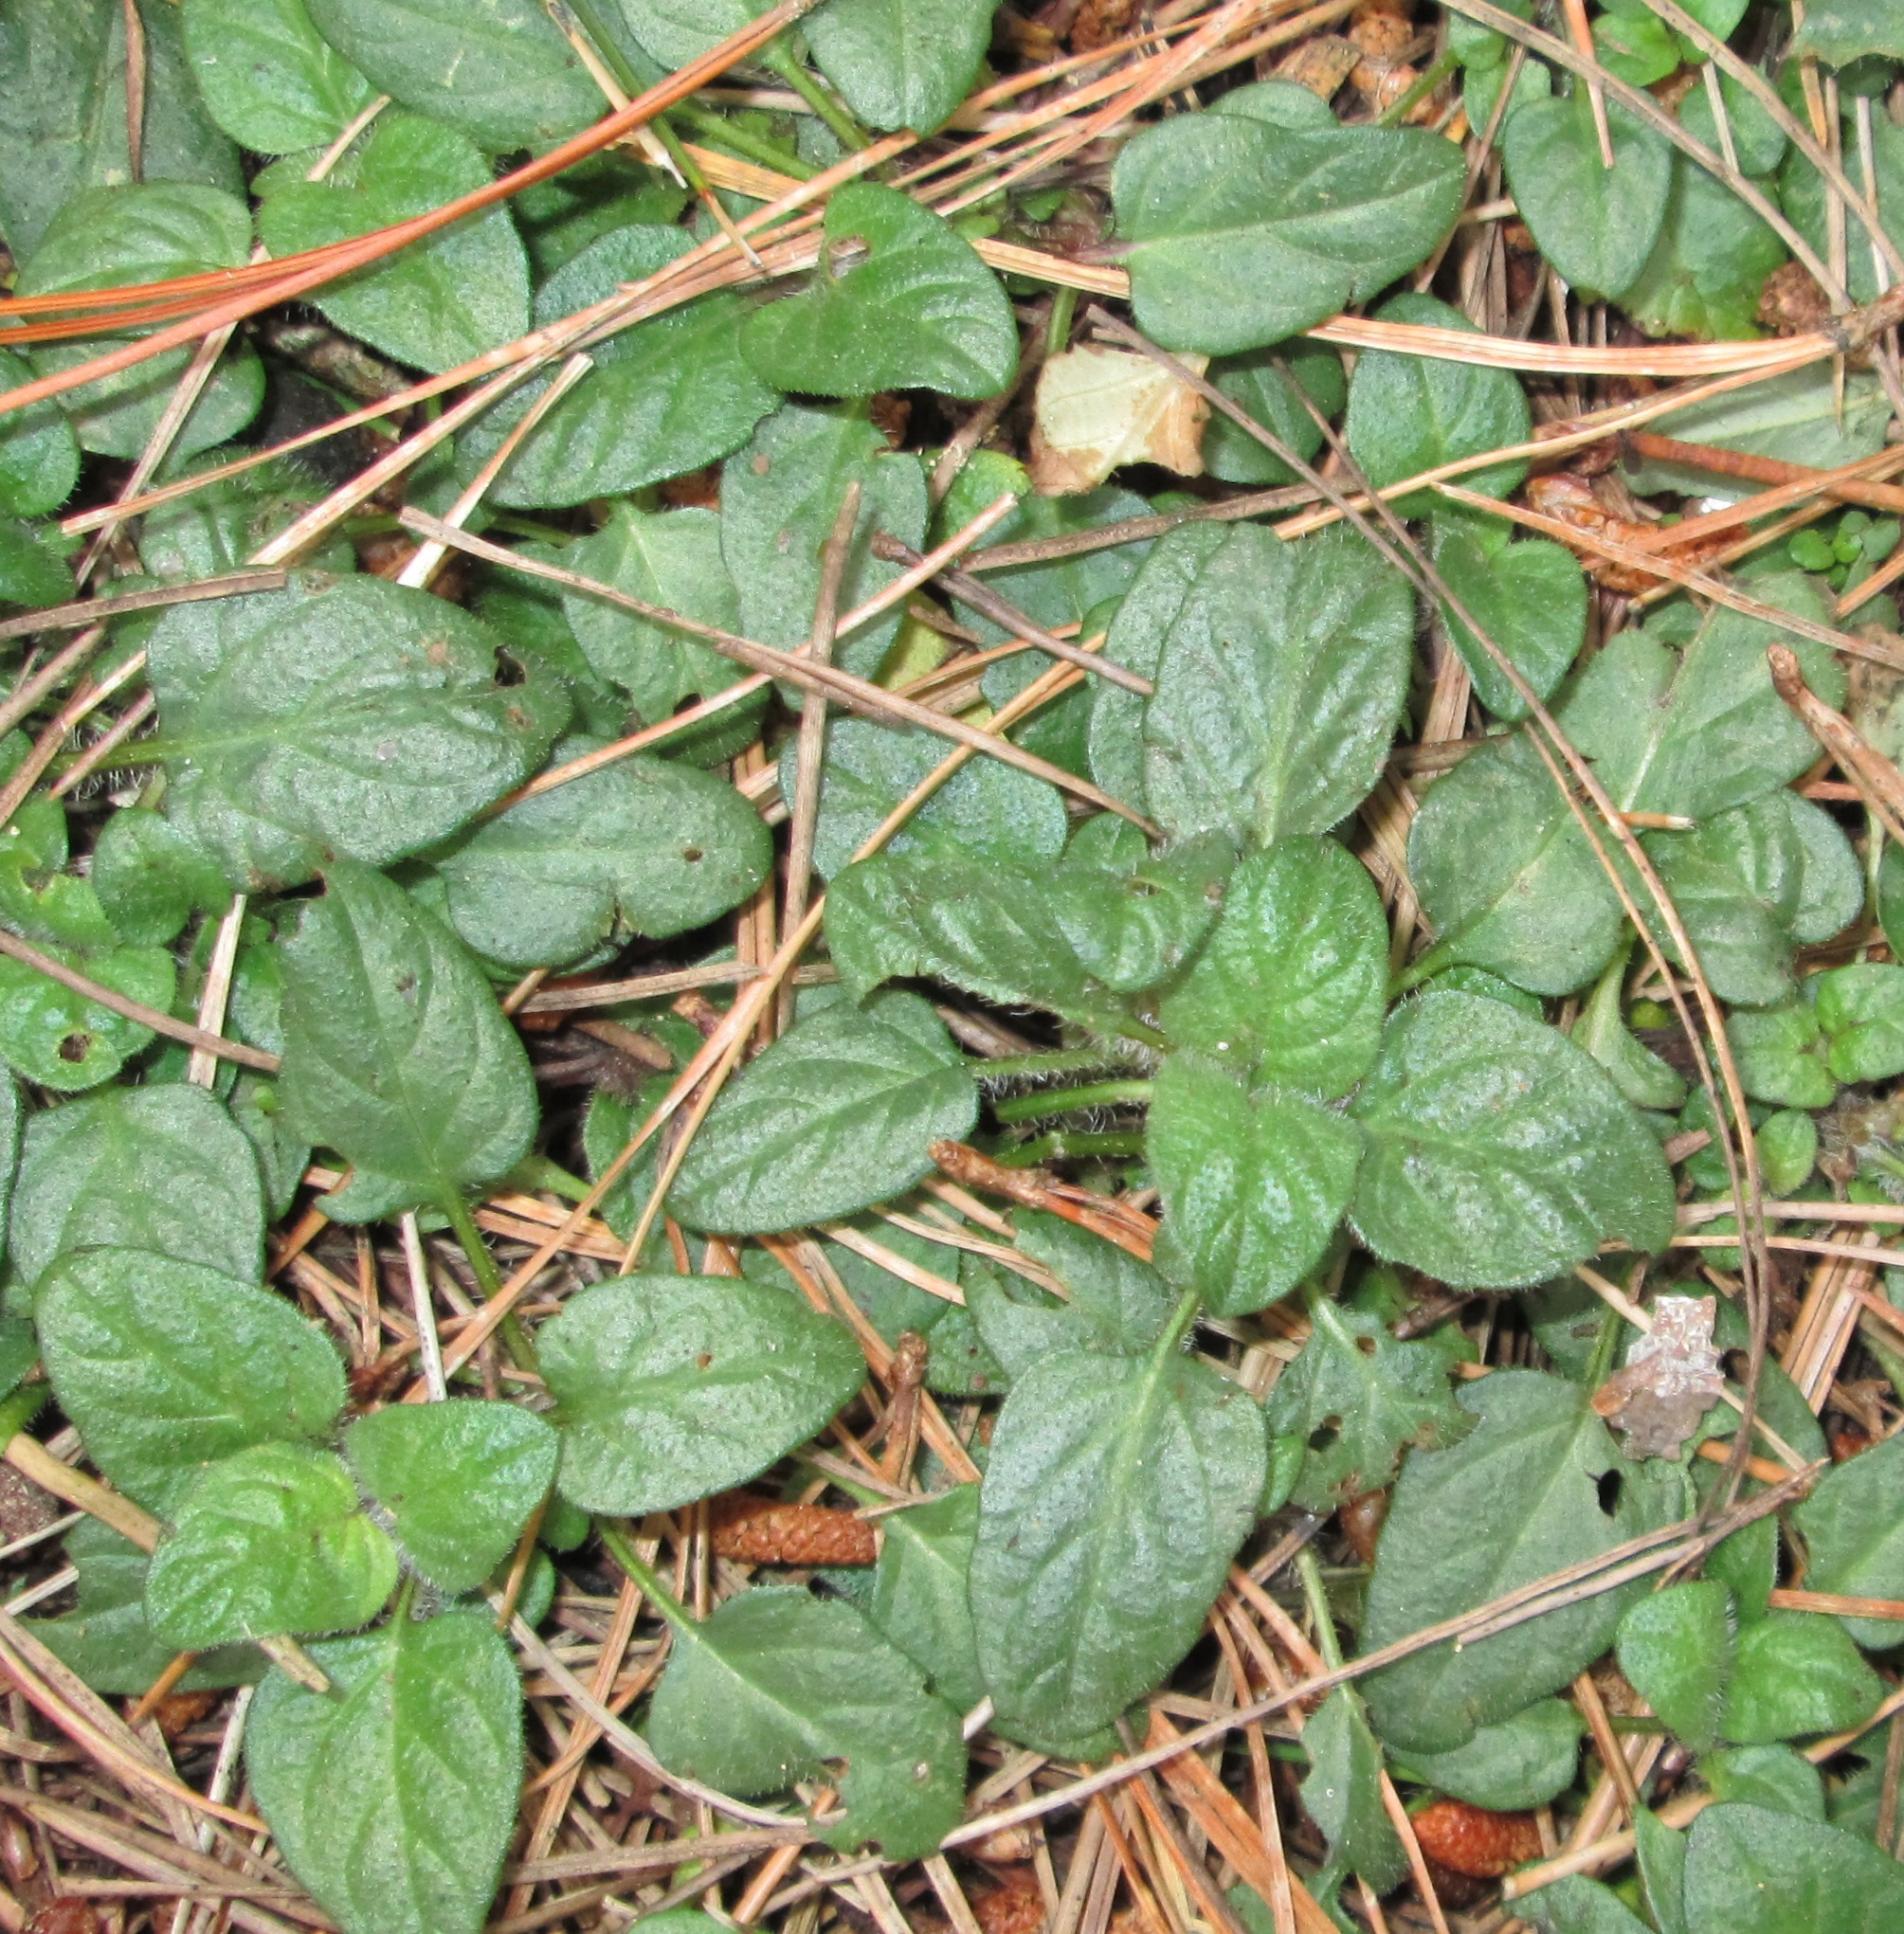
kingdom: Plantae
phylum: Tracheophyta
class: Magnoliopsida
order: Lamiales
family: Lamiaceae
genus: Prunella
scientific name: Prunella vulgaris
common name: Heal-all
